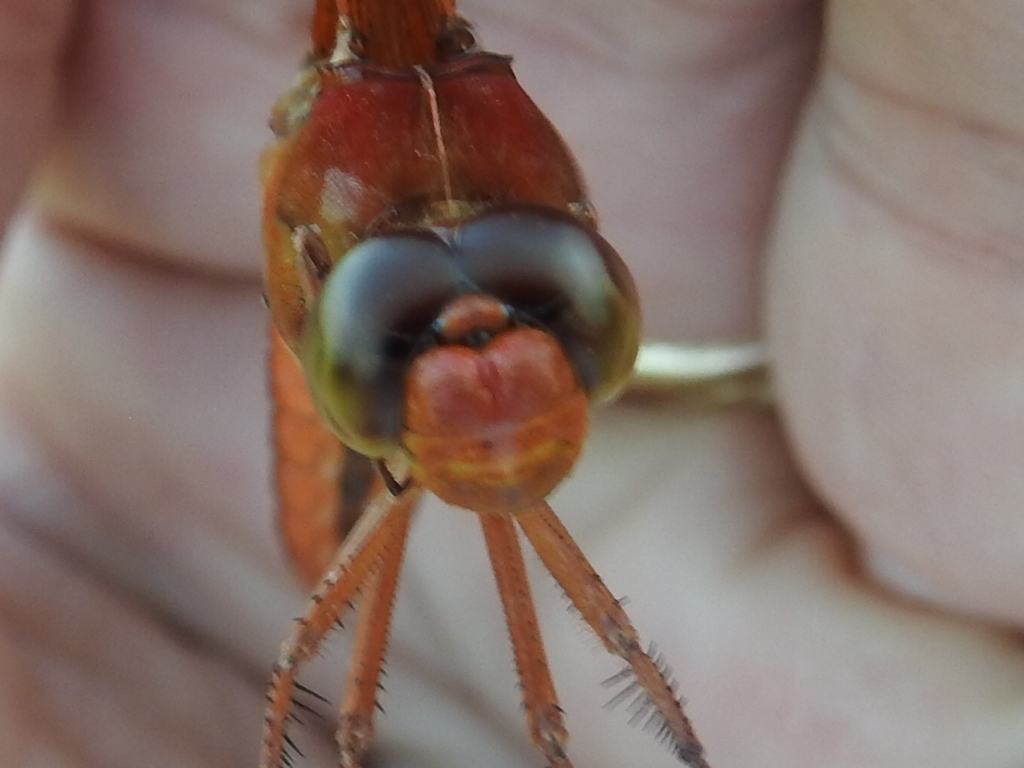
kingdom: Animalia
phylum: Arthropoda
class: Insecta
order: Odonata
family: Libellulidae
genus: Libellula
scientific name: Libellula croceipennis
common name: Neon skimmer
